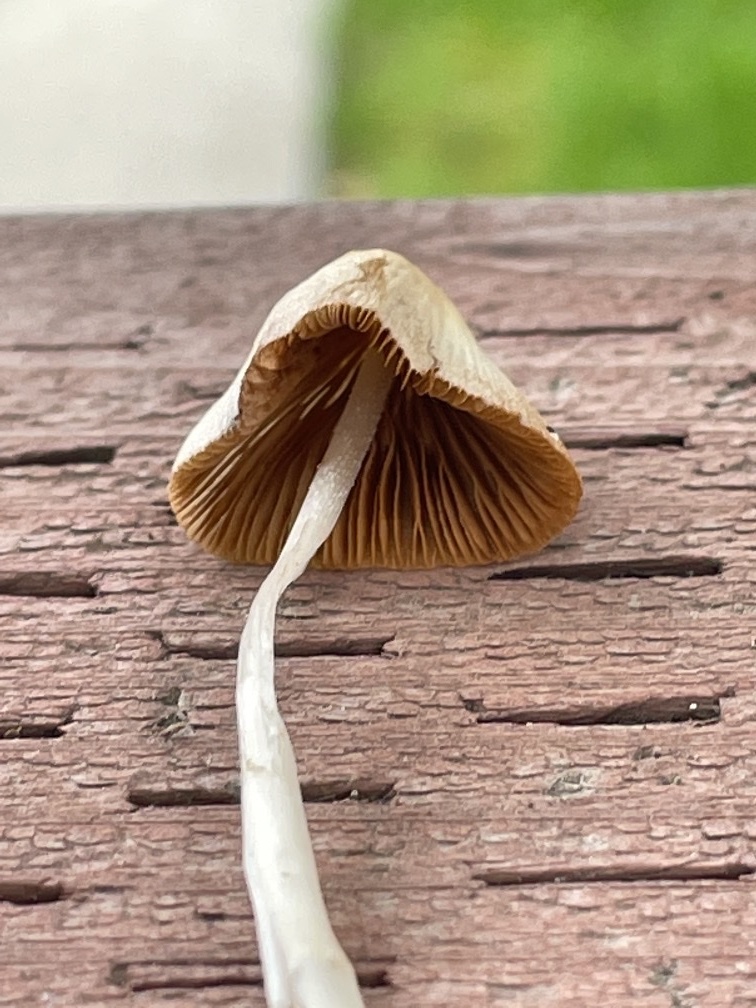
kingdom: Fungi
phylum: Basidiomycota
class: Agaricomycetes
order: Agaricales
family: Bolbitiaceae
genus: Conocybe
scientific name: Conocybe apala
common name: Milky conecap
